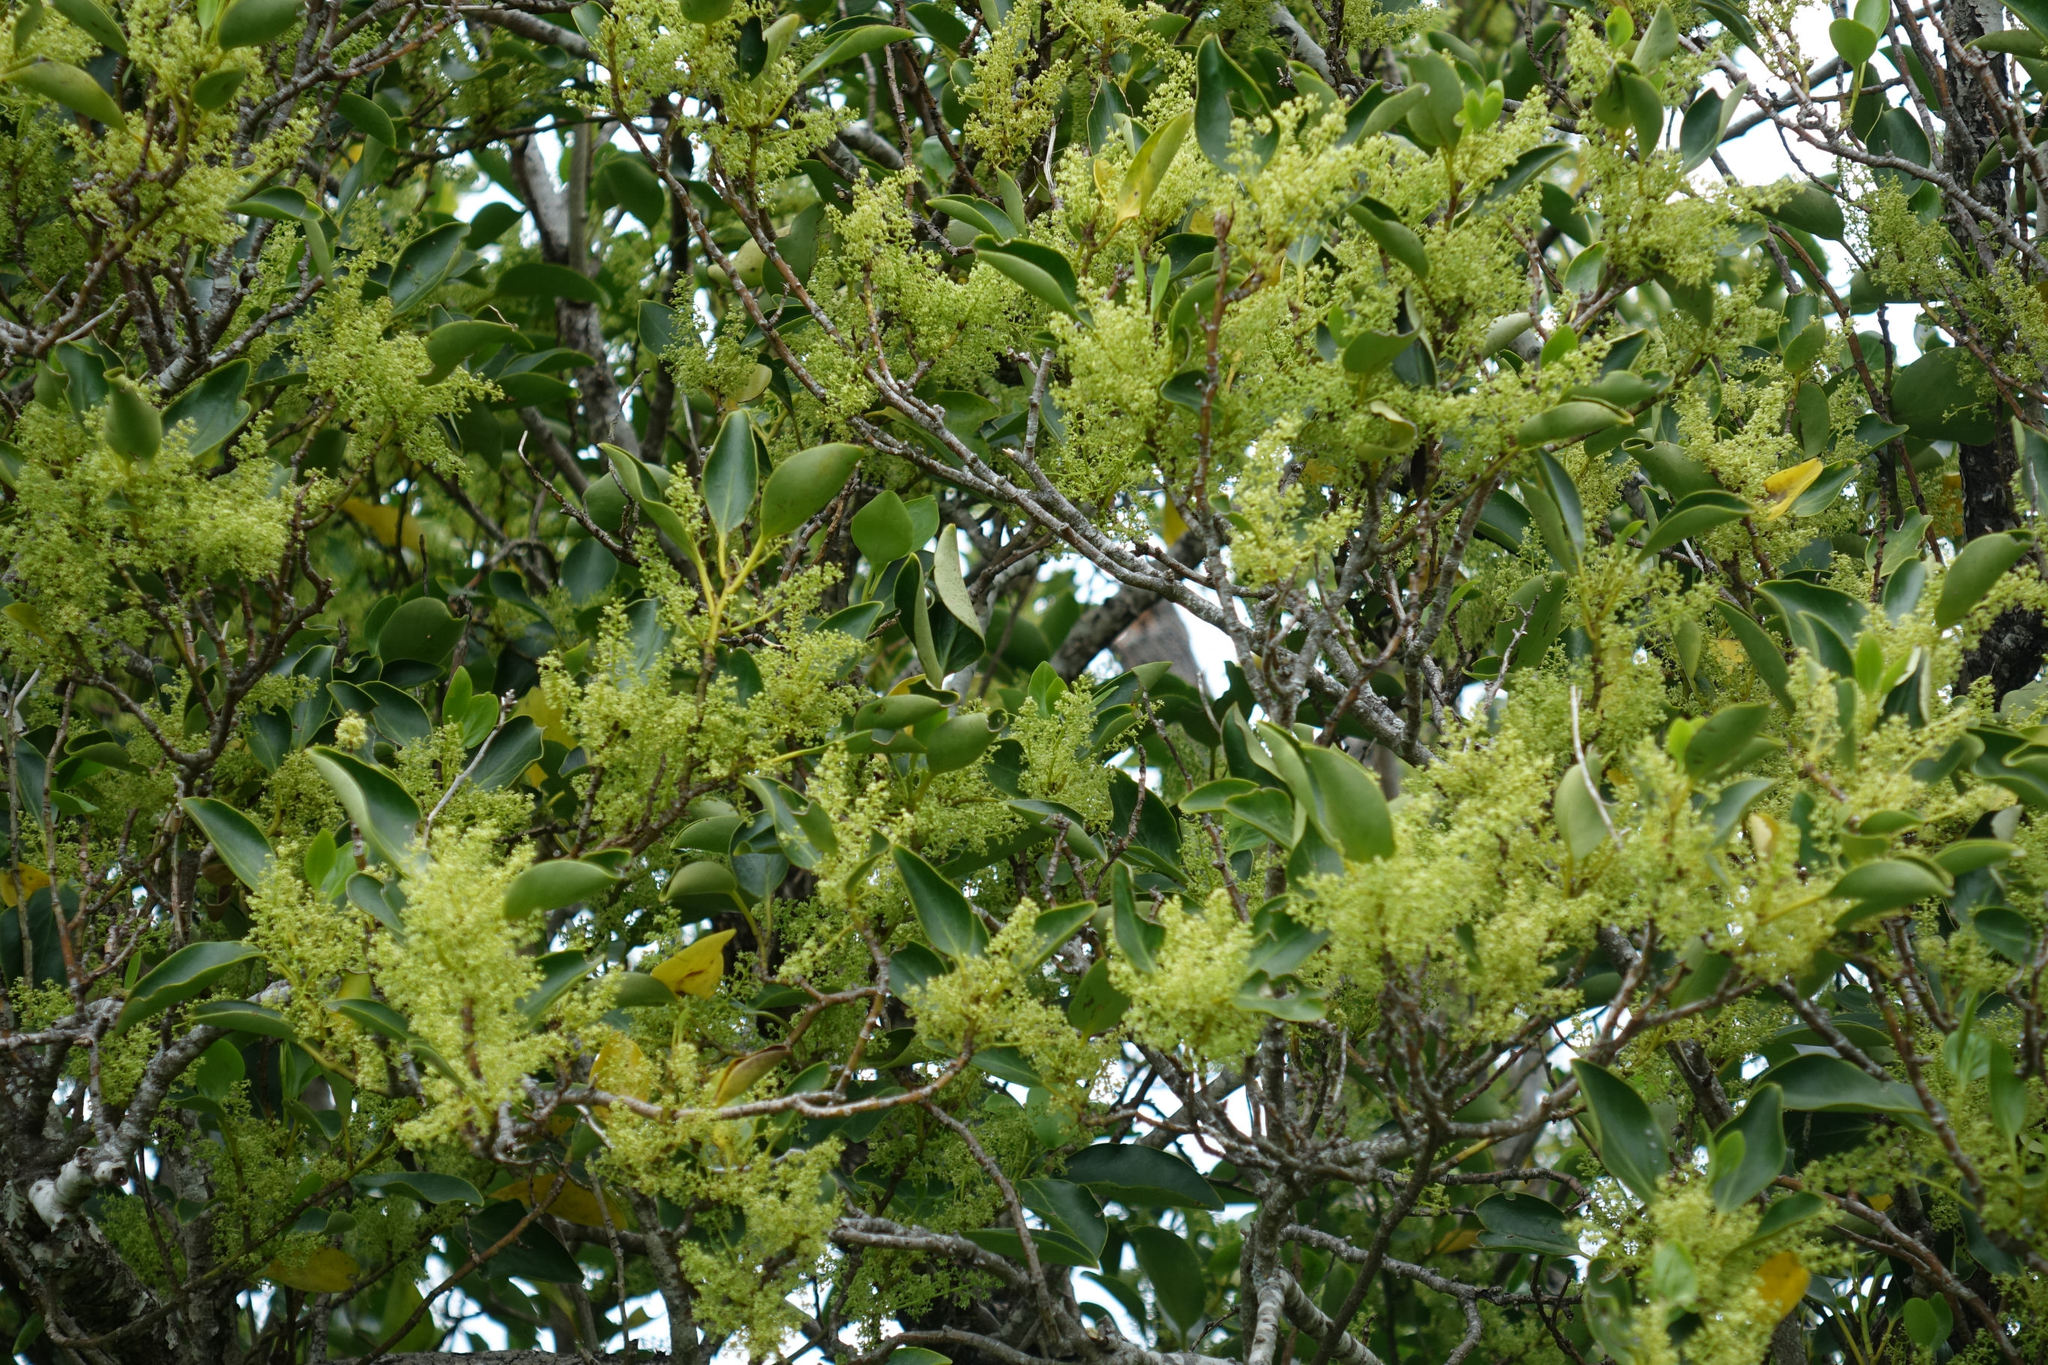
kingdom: Plantae
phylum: Tracheophyta
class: Magnoliopsida
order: Apiales
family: Griseliniaceae
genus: Griselinia
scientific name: Griselinia littoralis
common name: New zealand broadleaf
